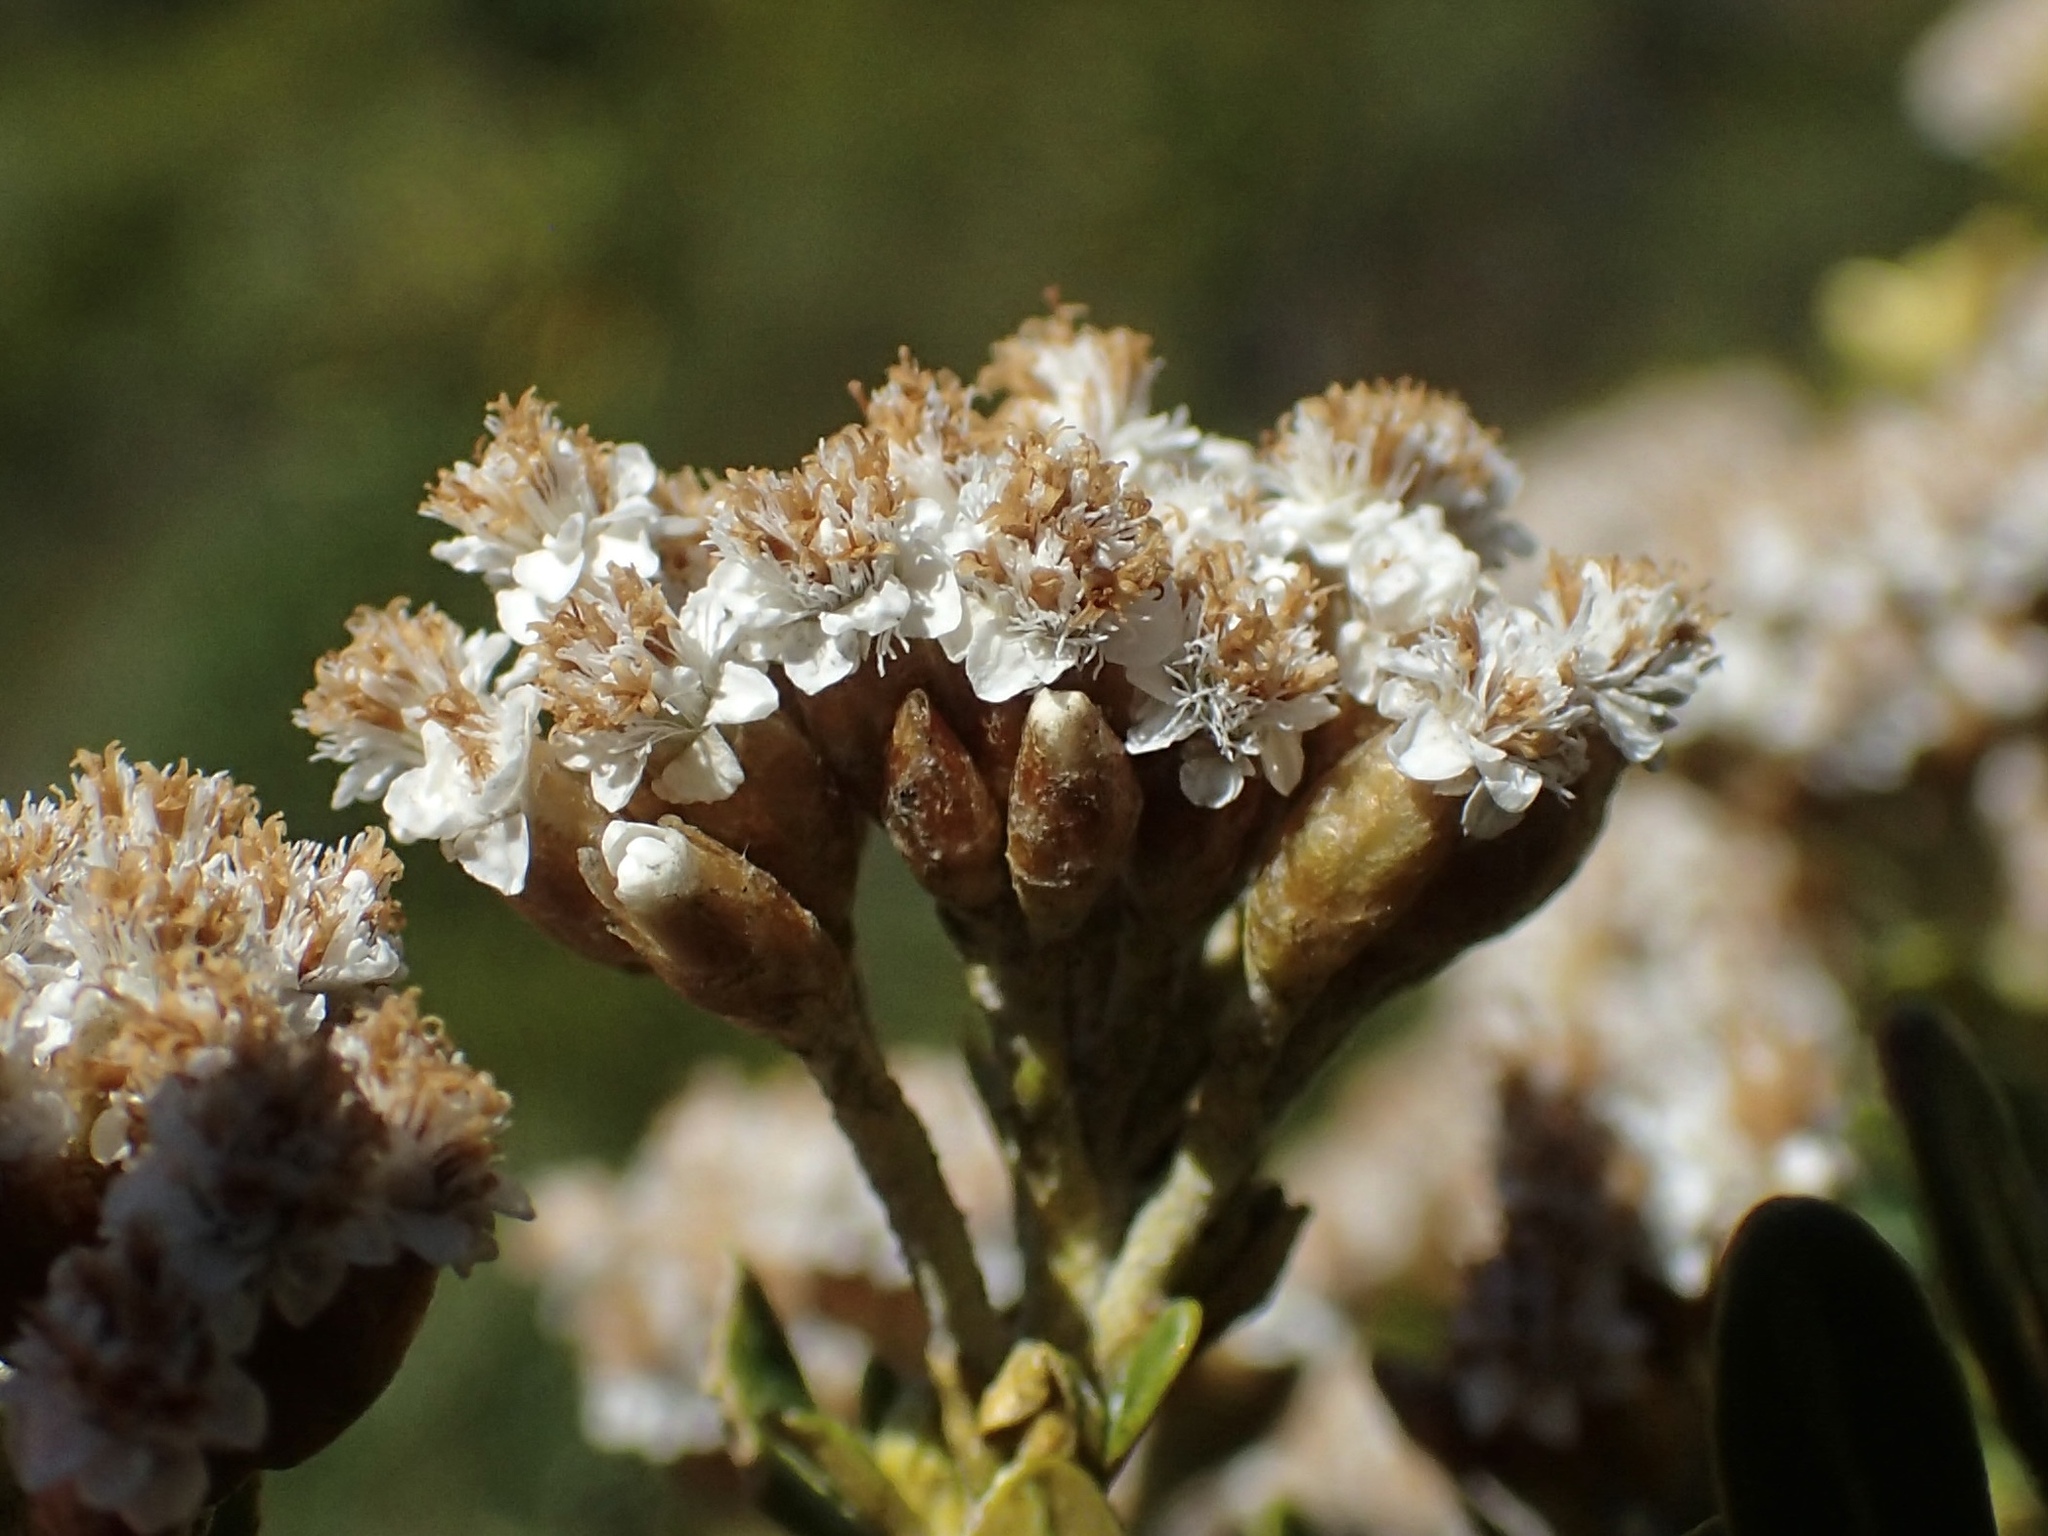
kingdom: Plantae
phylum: Tracheophyta
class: Magnoliopsida
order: Asterales
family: Asteraceae
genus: Ozothamnus
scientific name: Ozothamnus leptophyllus
